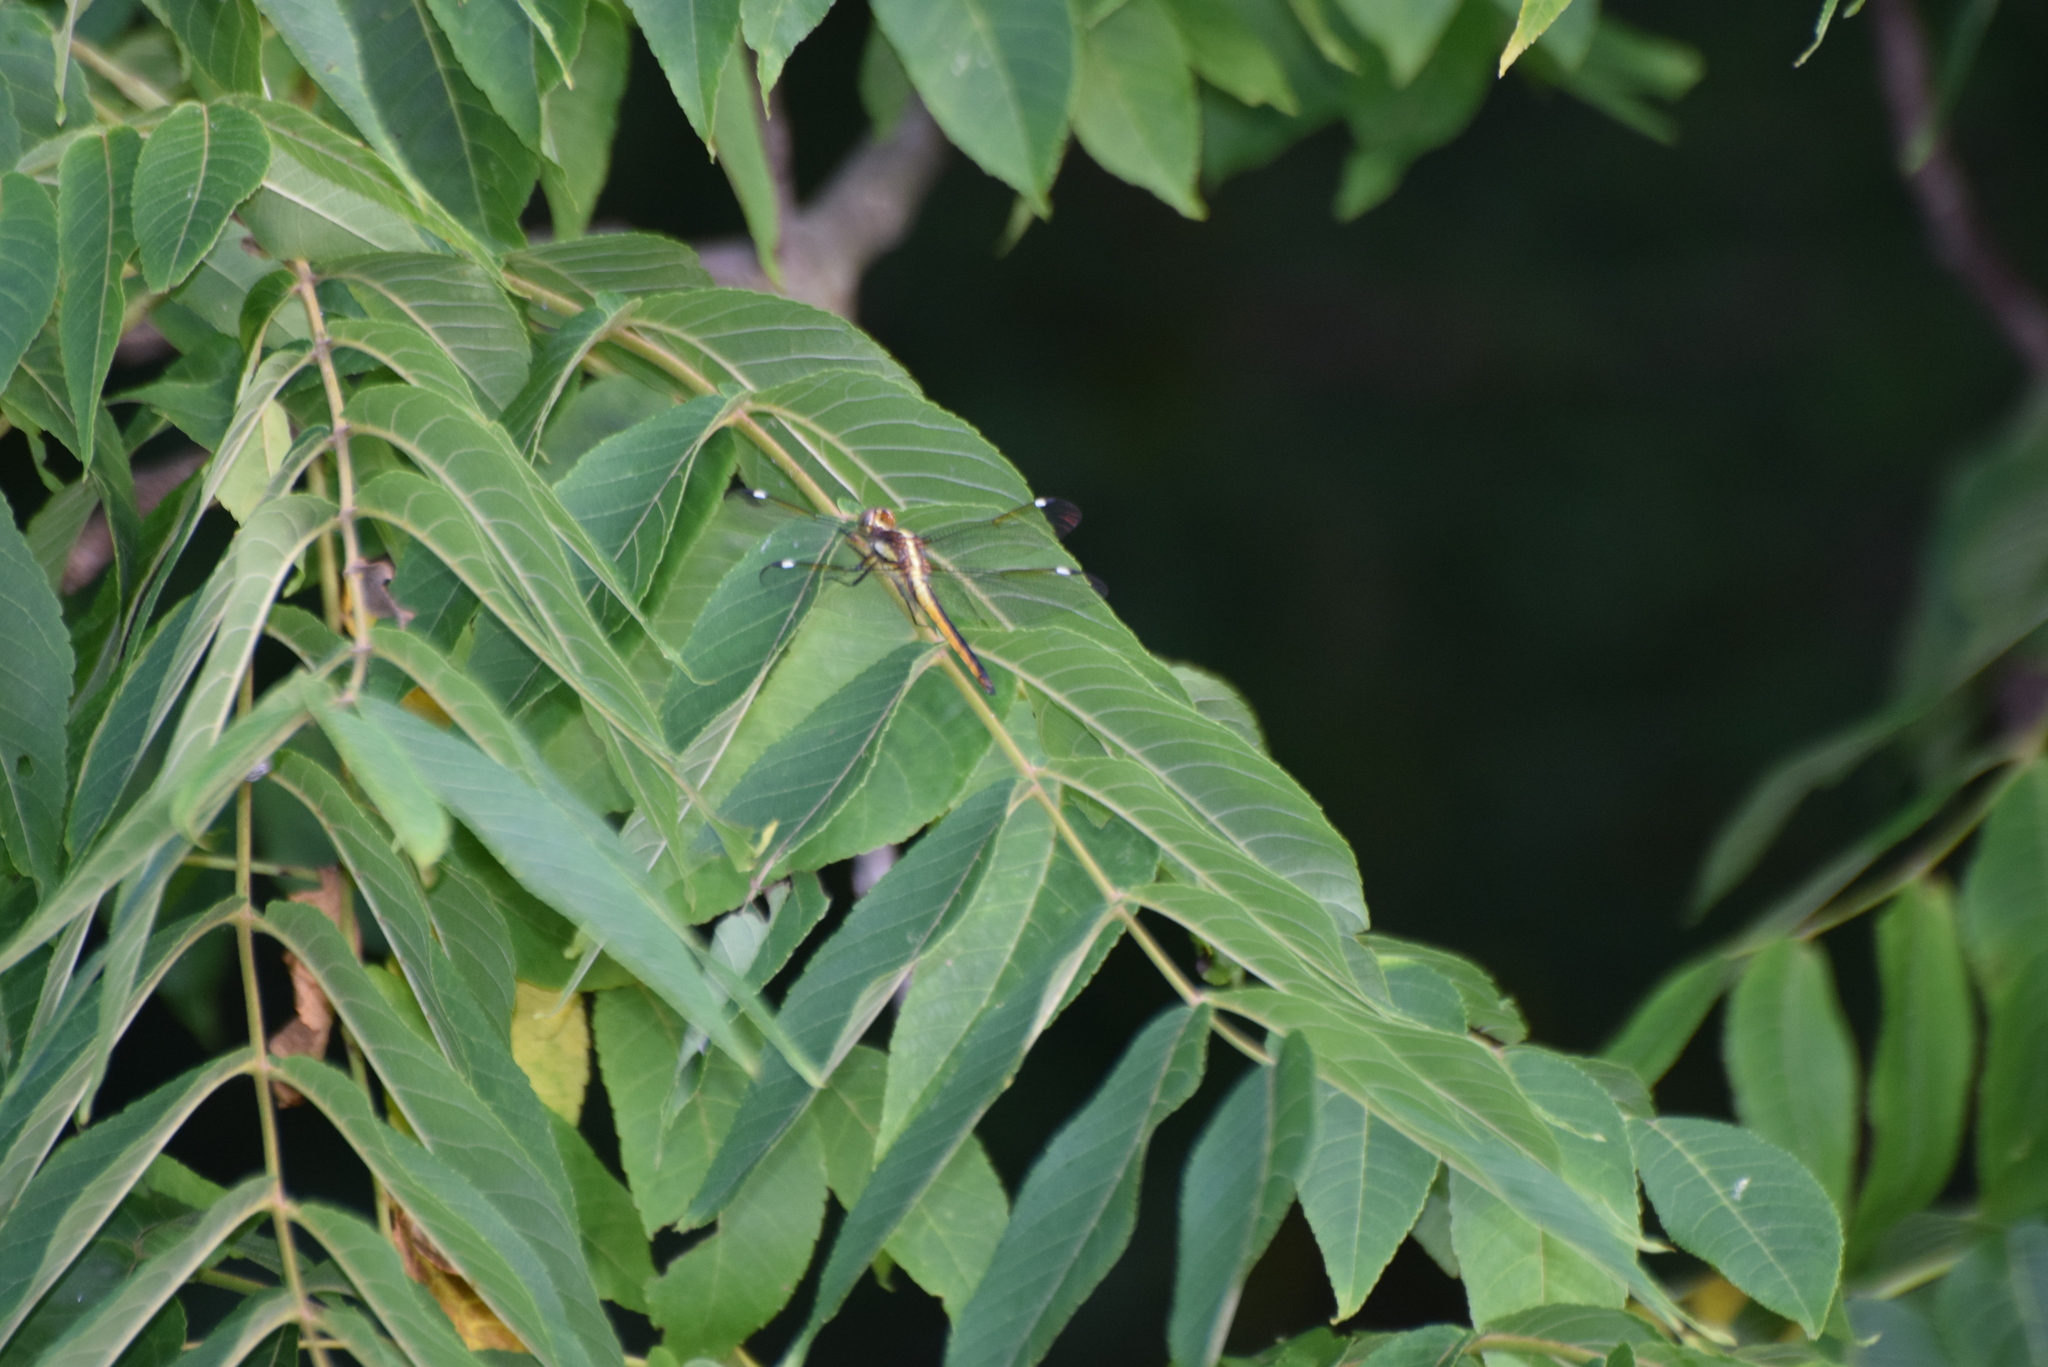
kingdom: Animalia
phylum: Arthropoda
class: Insecta
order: Odonata
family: Libellulidae
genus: Libellula
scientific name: Libellula cyanea
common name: Spangled skimmer
